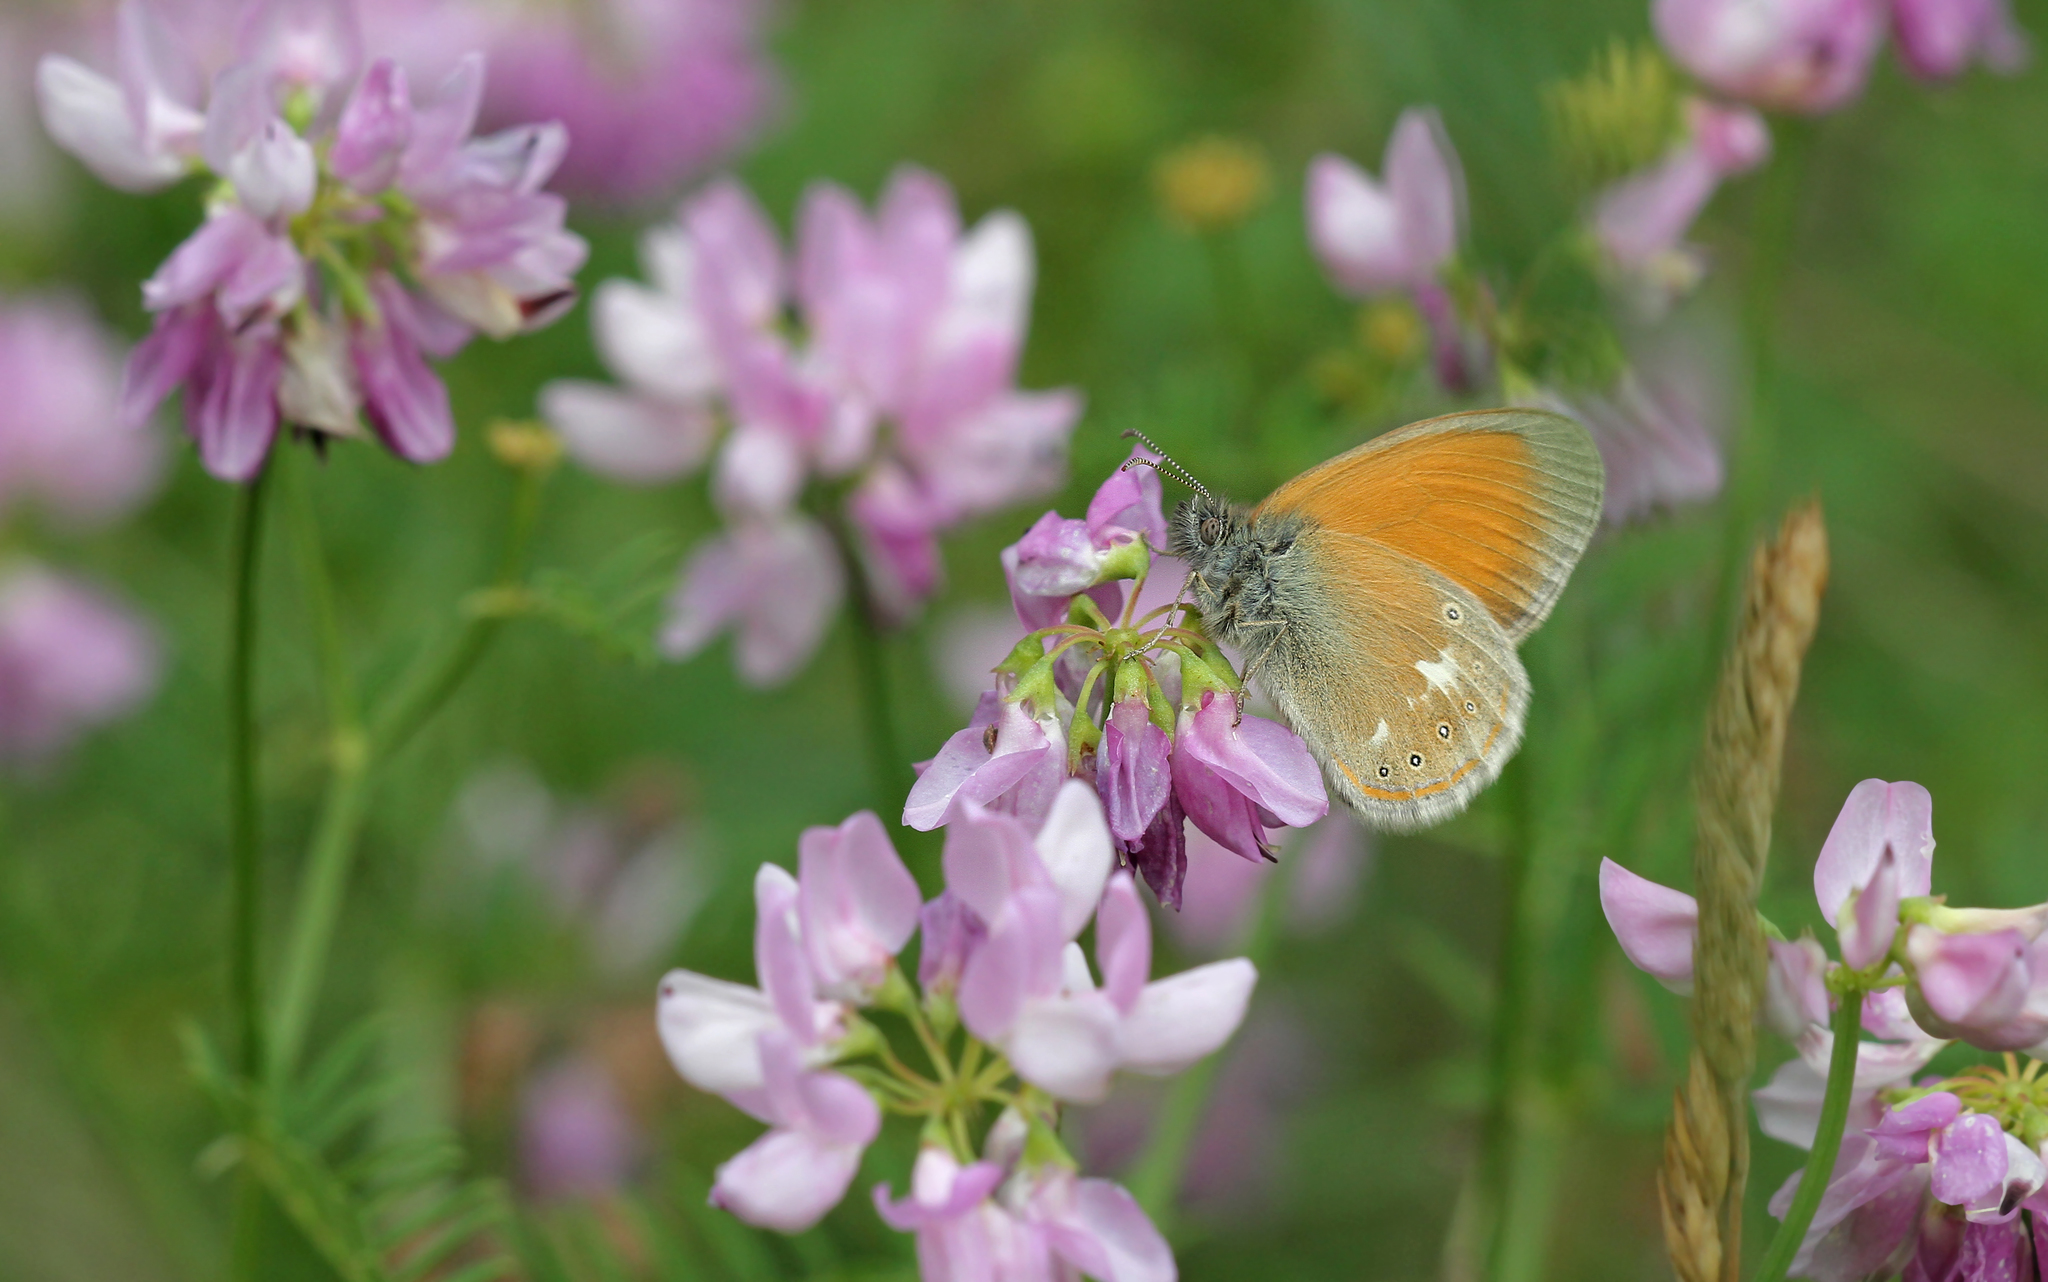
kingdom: Animalia
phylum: Arthropoda
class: Insecta
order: Lepidoptera
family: Nymphalidae
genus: Coenonympha
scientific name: Coenonympha iphis
